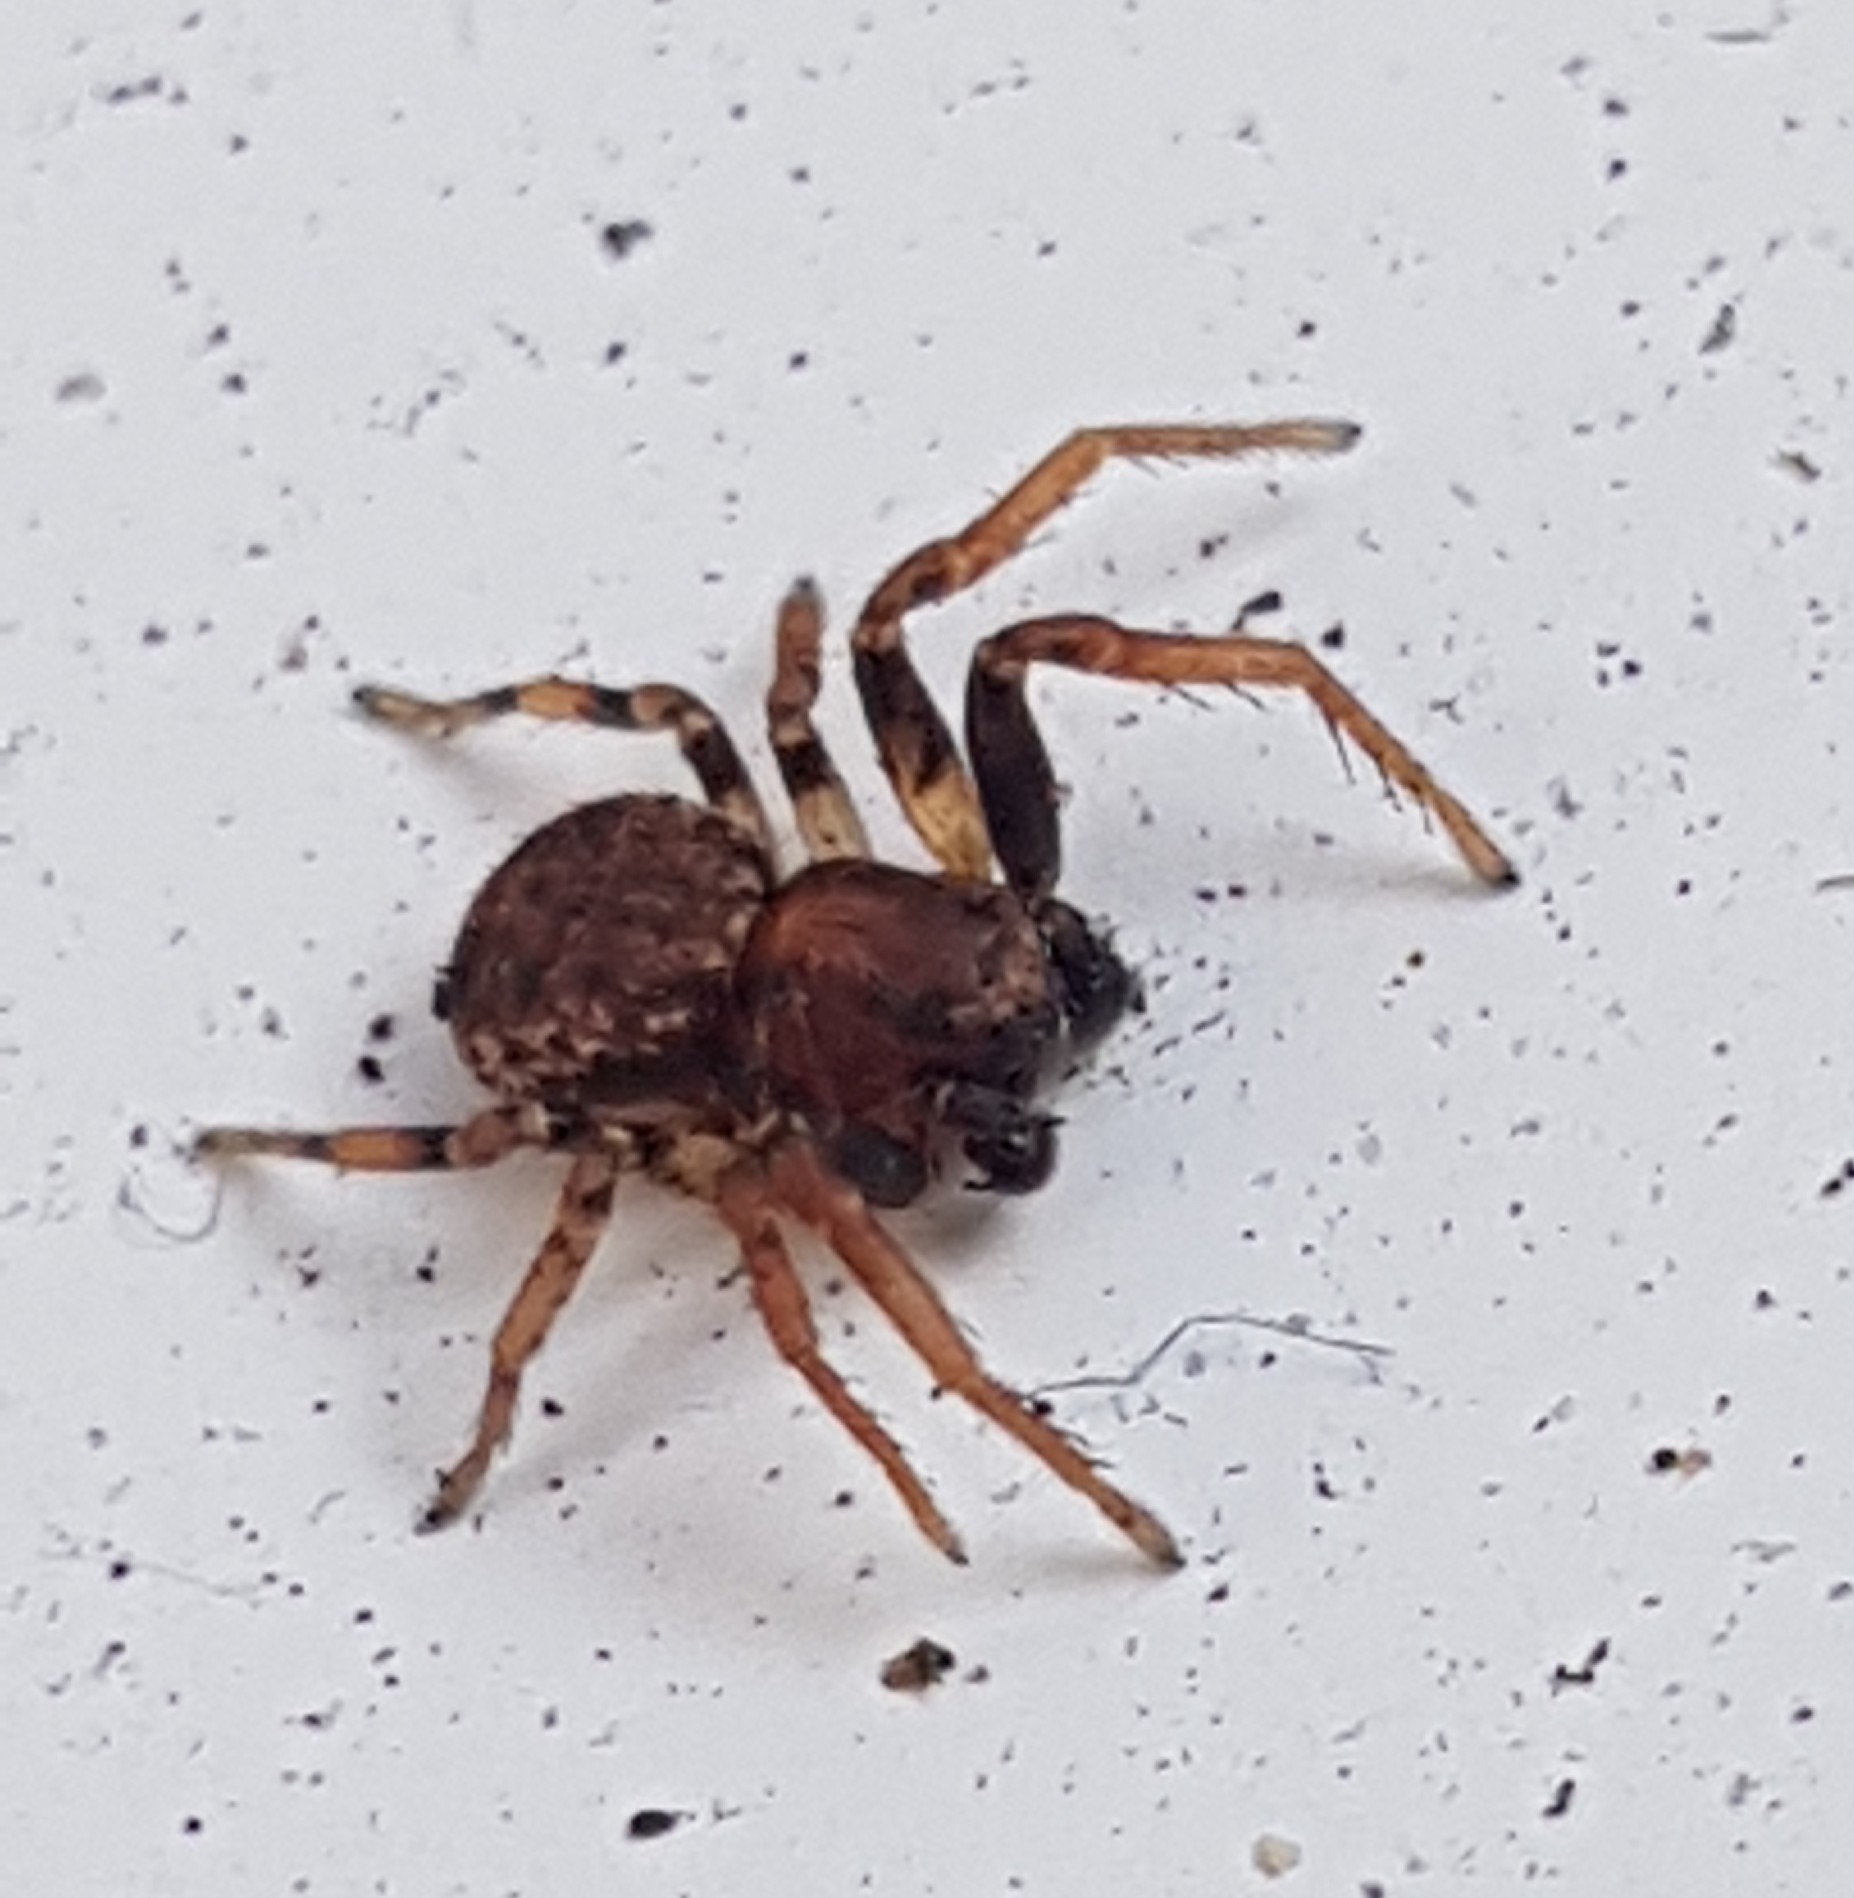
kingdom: Animalia
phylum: Arthropoda
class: Arachnida
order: Araneae
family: Thomisidae
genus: Ozyptila
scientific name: Ozyptila praticola
